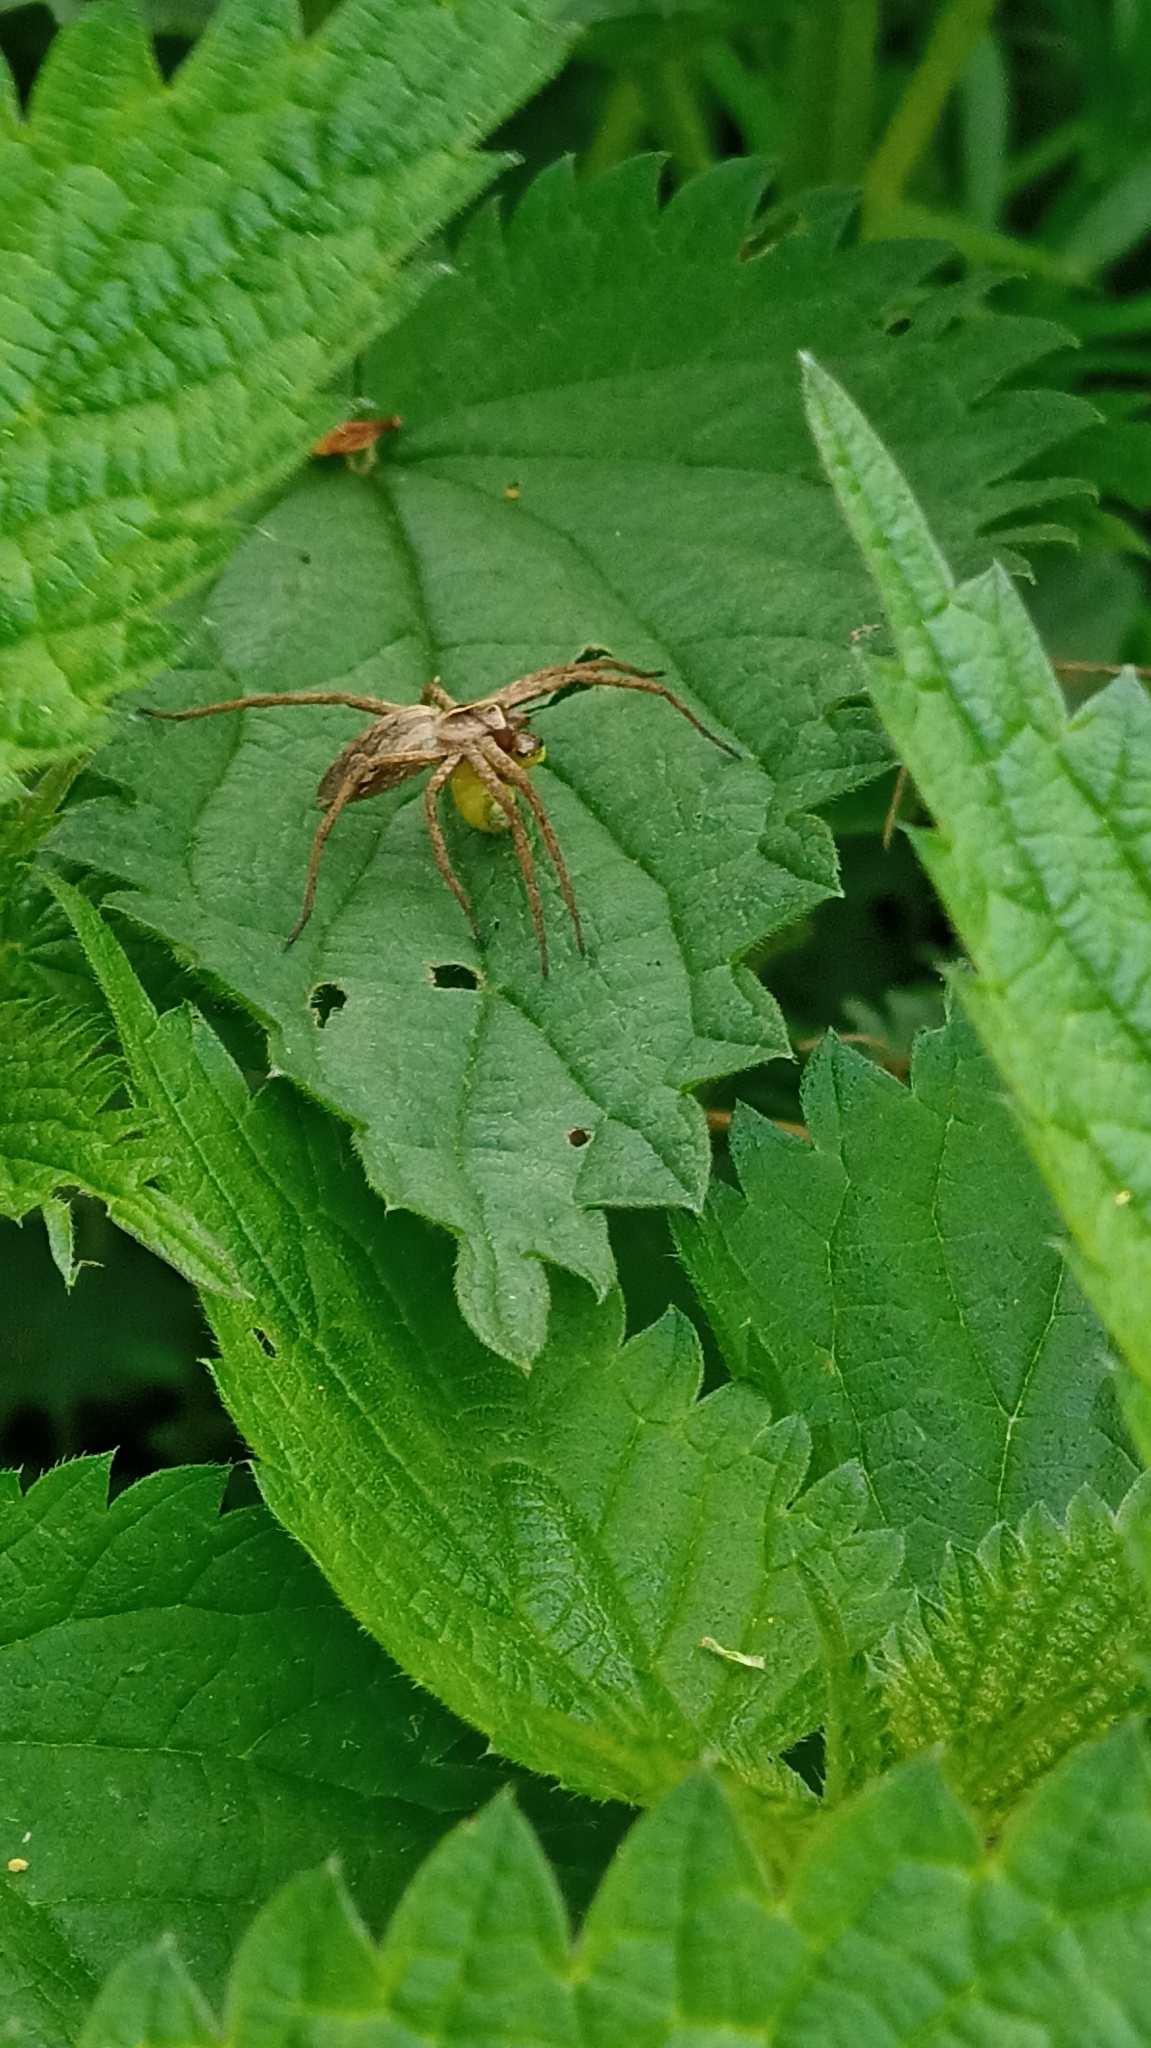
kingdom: Animalia
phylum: Arthropoda
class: Arachnida
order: Araneae
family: Pisauridae
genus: Pisaura
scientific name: Pisaura mirabilis
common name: Tent spider
